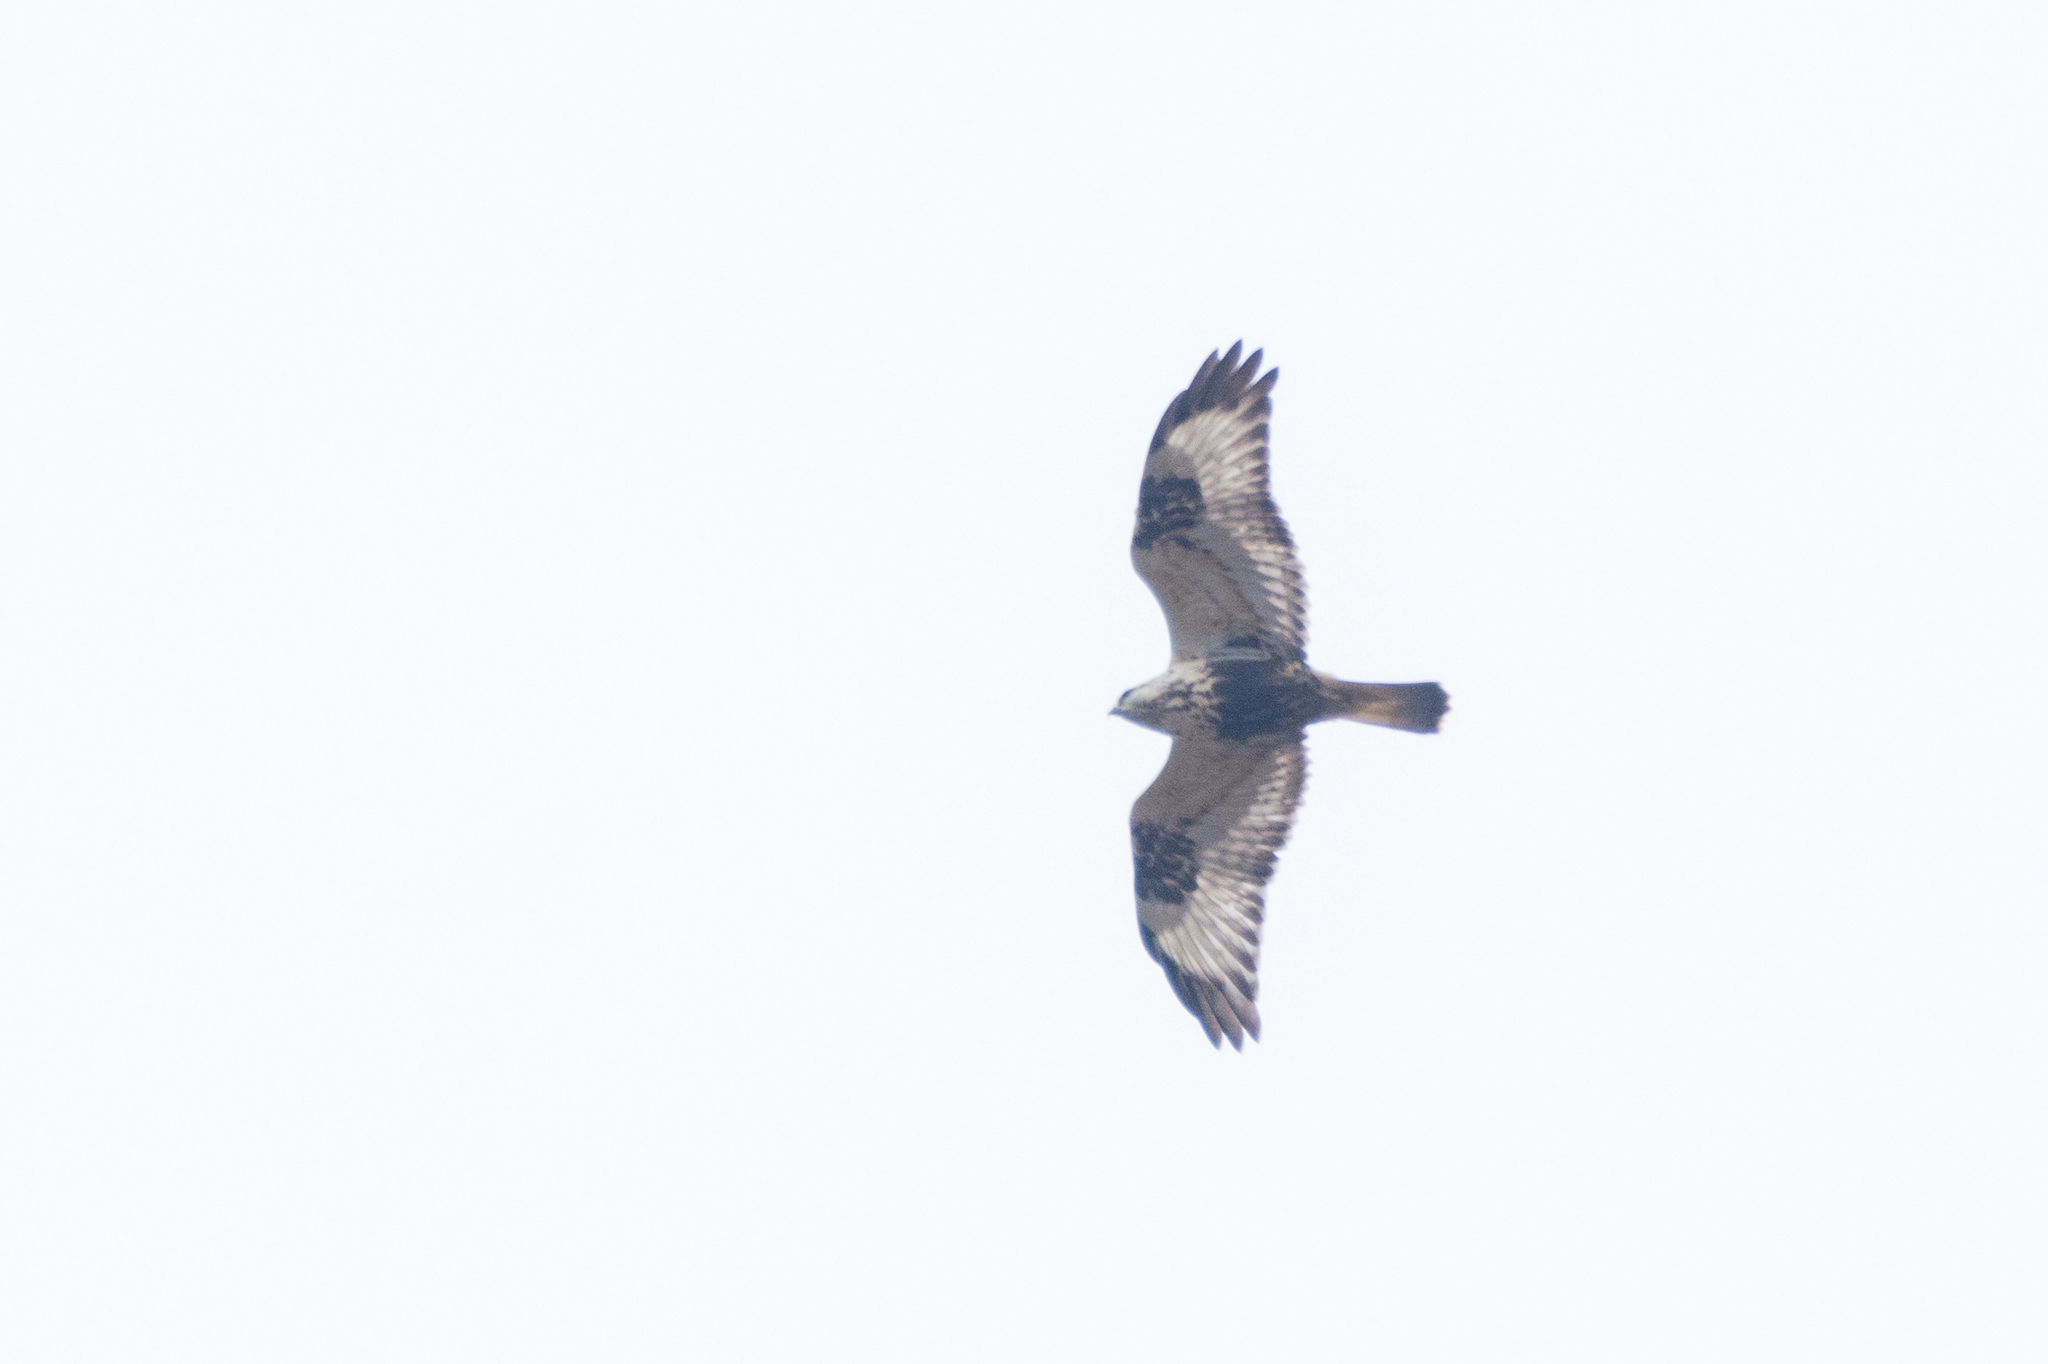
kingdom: Animalia
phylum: Chordata
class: Aves
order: Accipitriformes
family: Accipitridae
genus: Buteo
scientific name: Buteo lagopus
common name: Rough-legged buzzard
